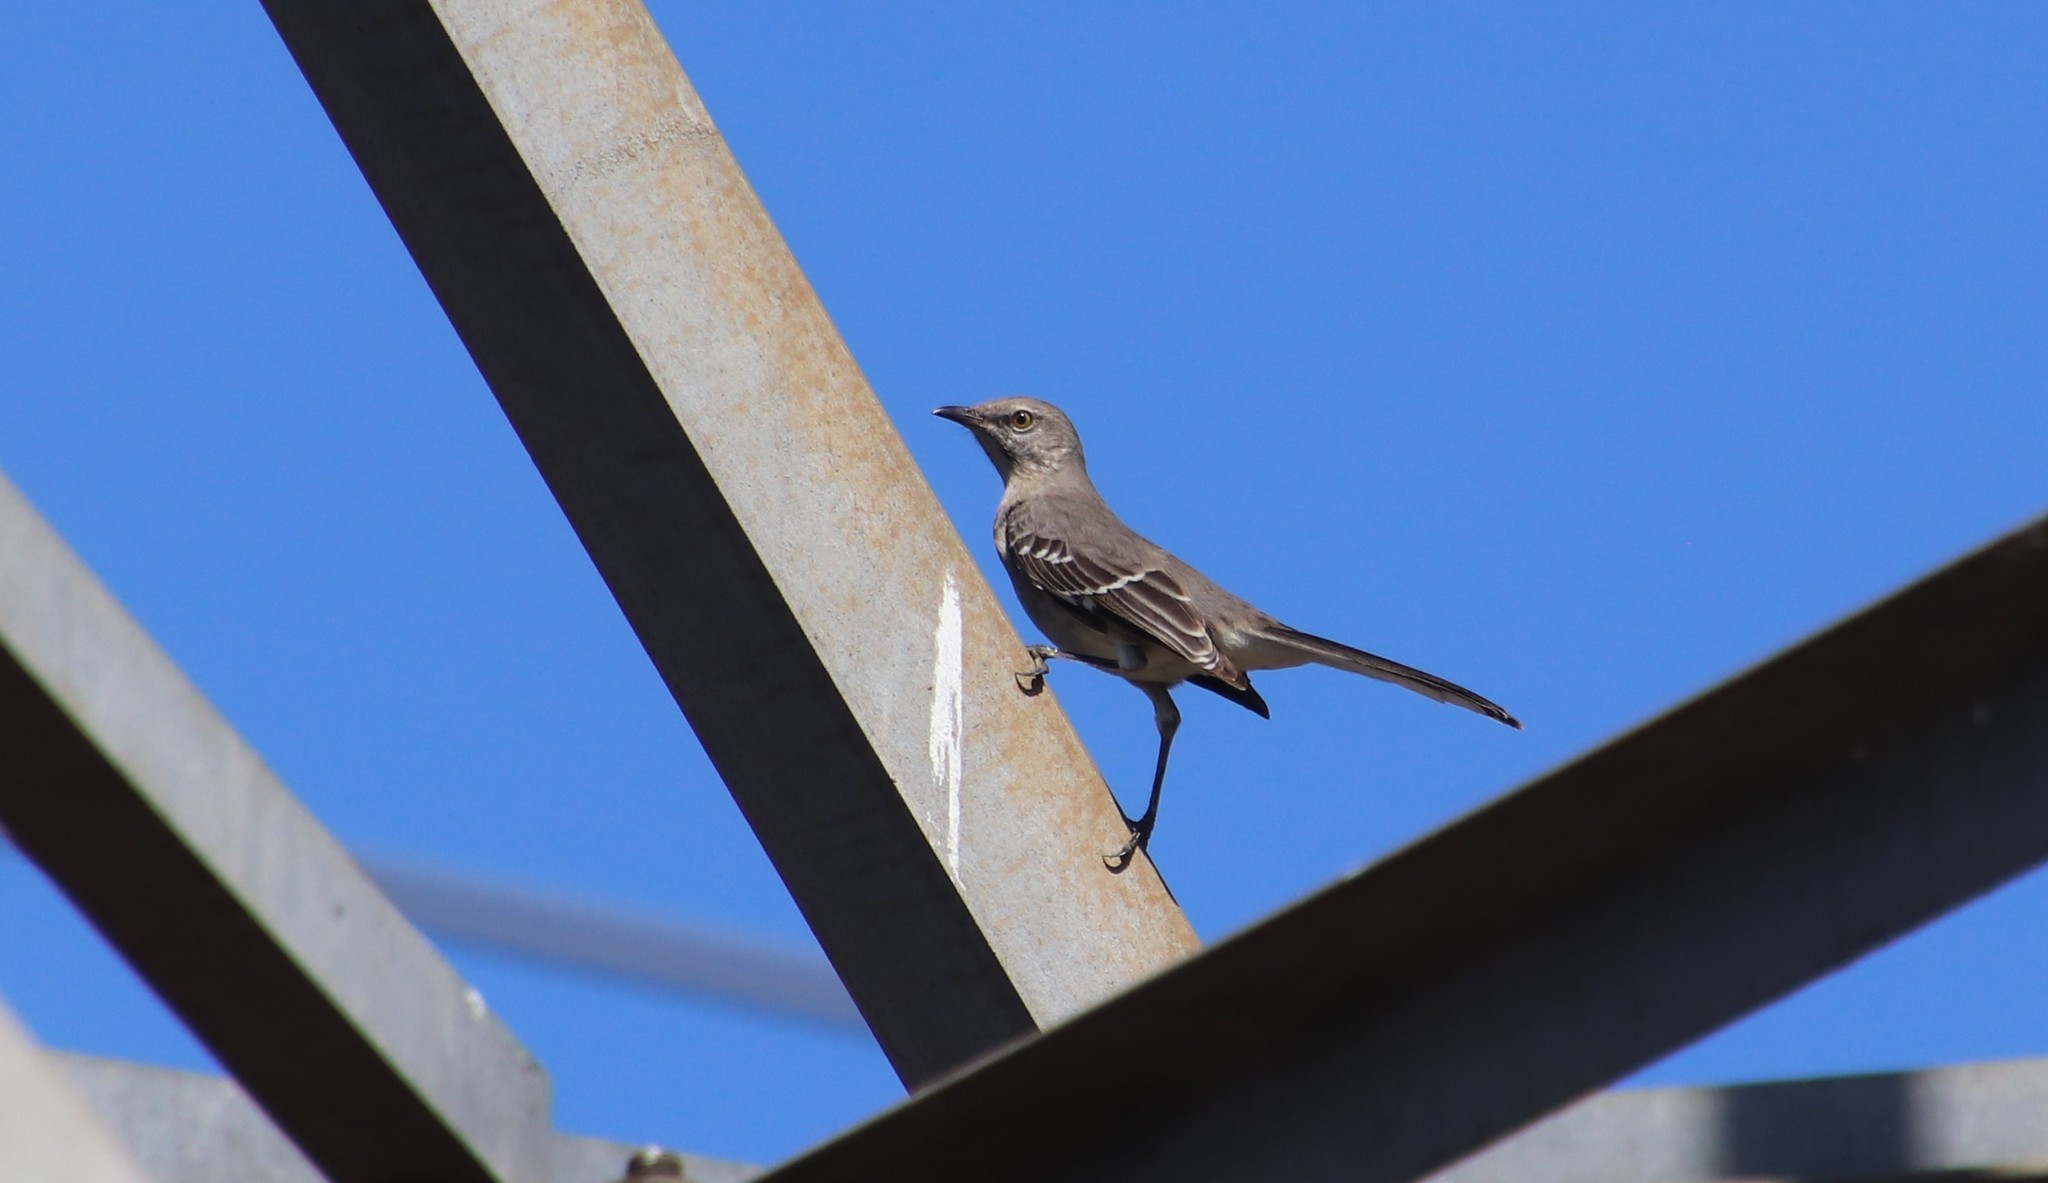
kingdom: Animalia
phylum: Chordata
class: Aves
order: Passeriformes
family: Mimidae
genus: Mimus
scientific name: Mimus polyglottos
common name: Northern mockingbird
